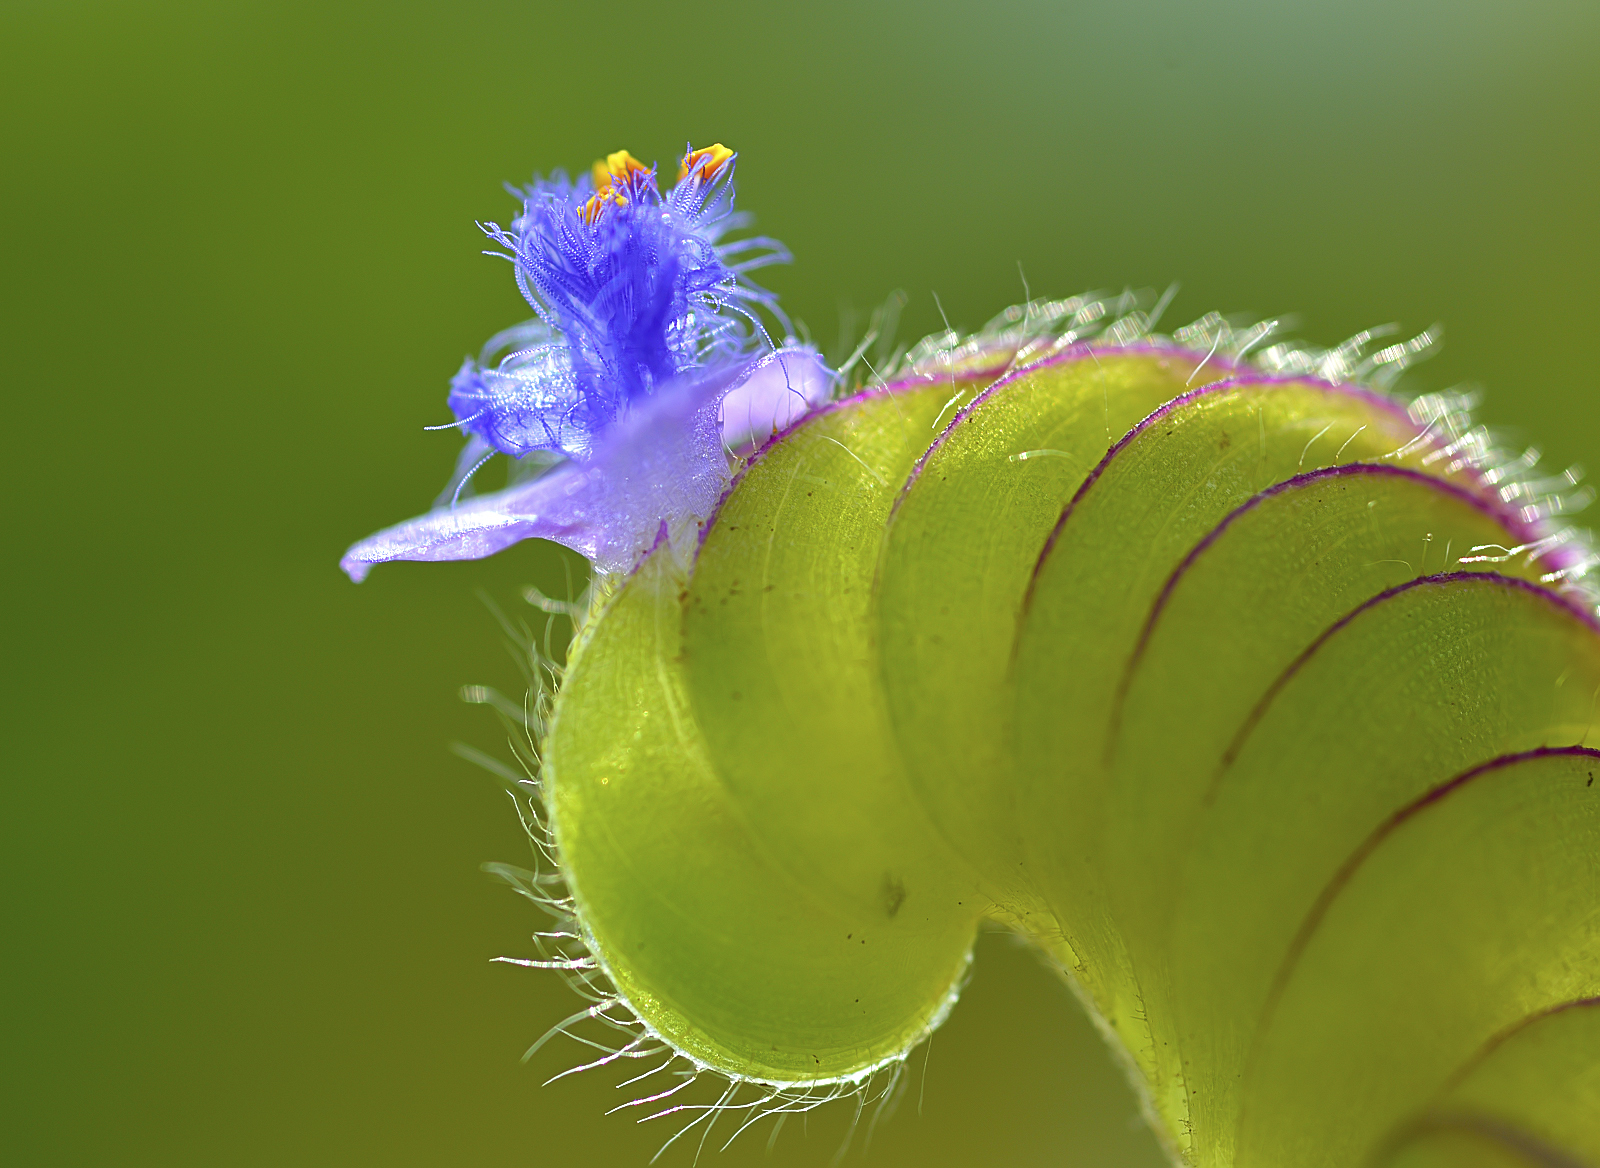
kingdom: Plantae
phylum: Tracheophyta
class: Liliopsida
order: Commelinales
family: Commelinaceae
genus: Cyanotis
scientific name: Cyanotis cristata
